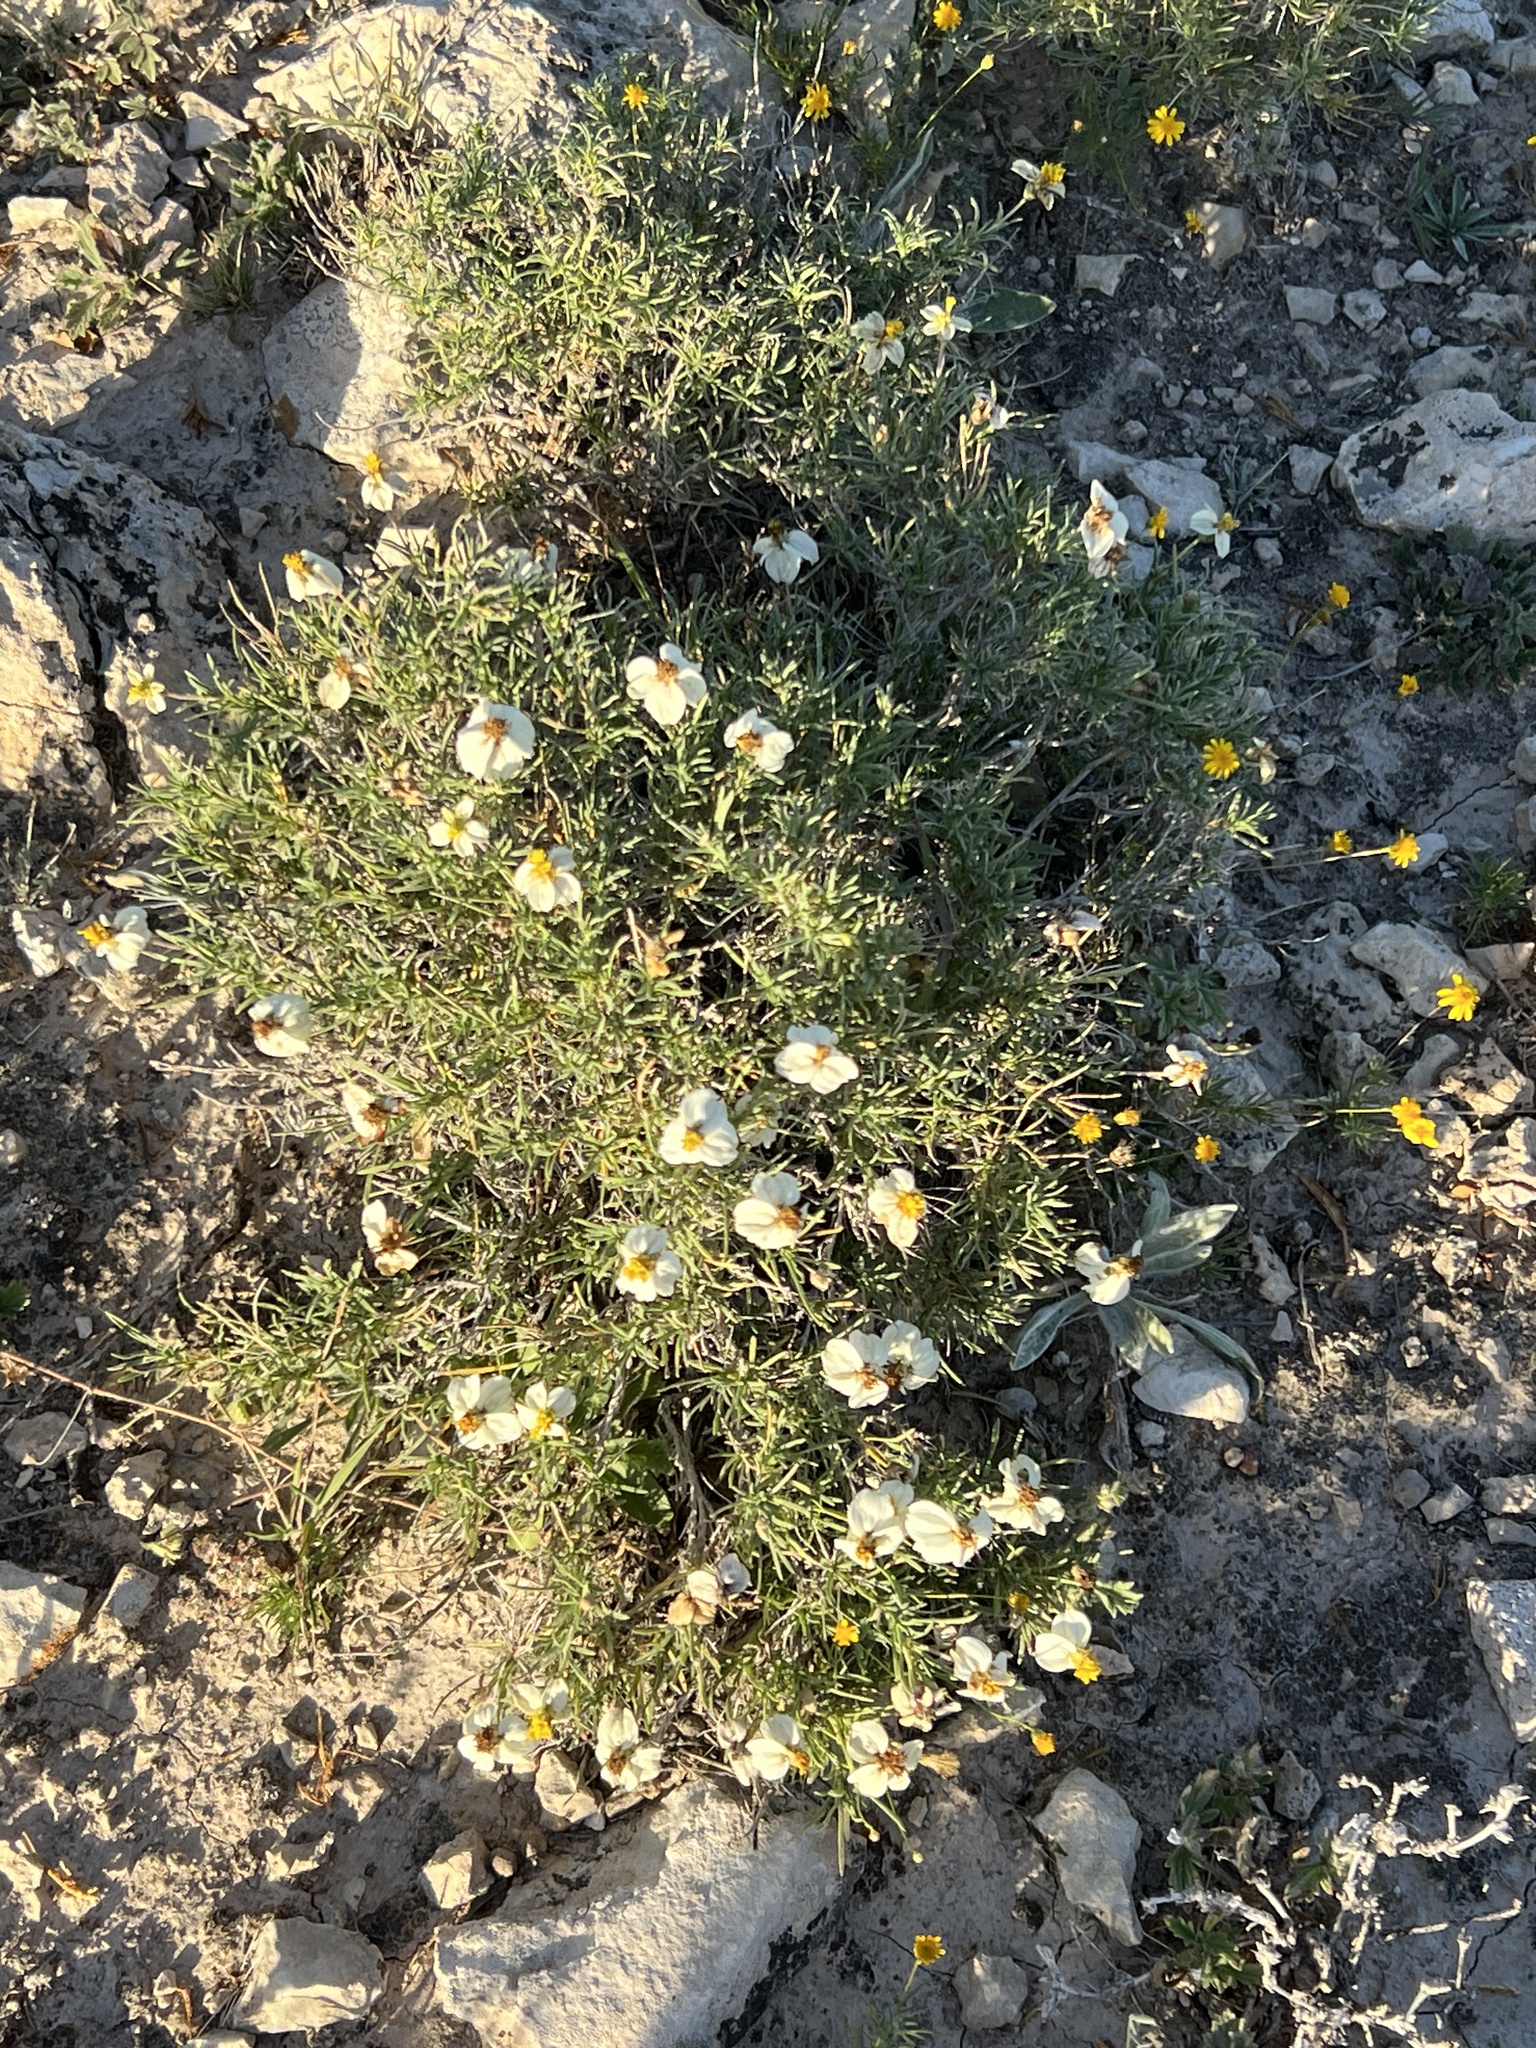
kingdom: Plantae
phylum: Tracheophyta
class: Magnoliopsida
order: Asterales
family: Asteraceae
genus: Zinnia
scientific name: Zinnia acerosa
